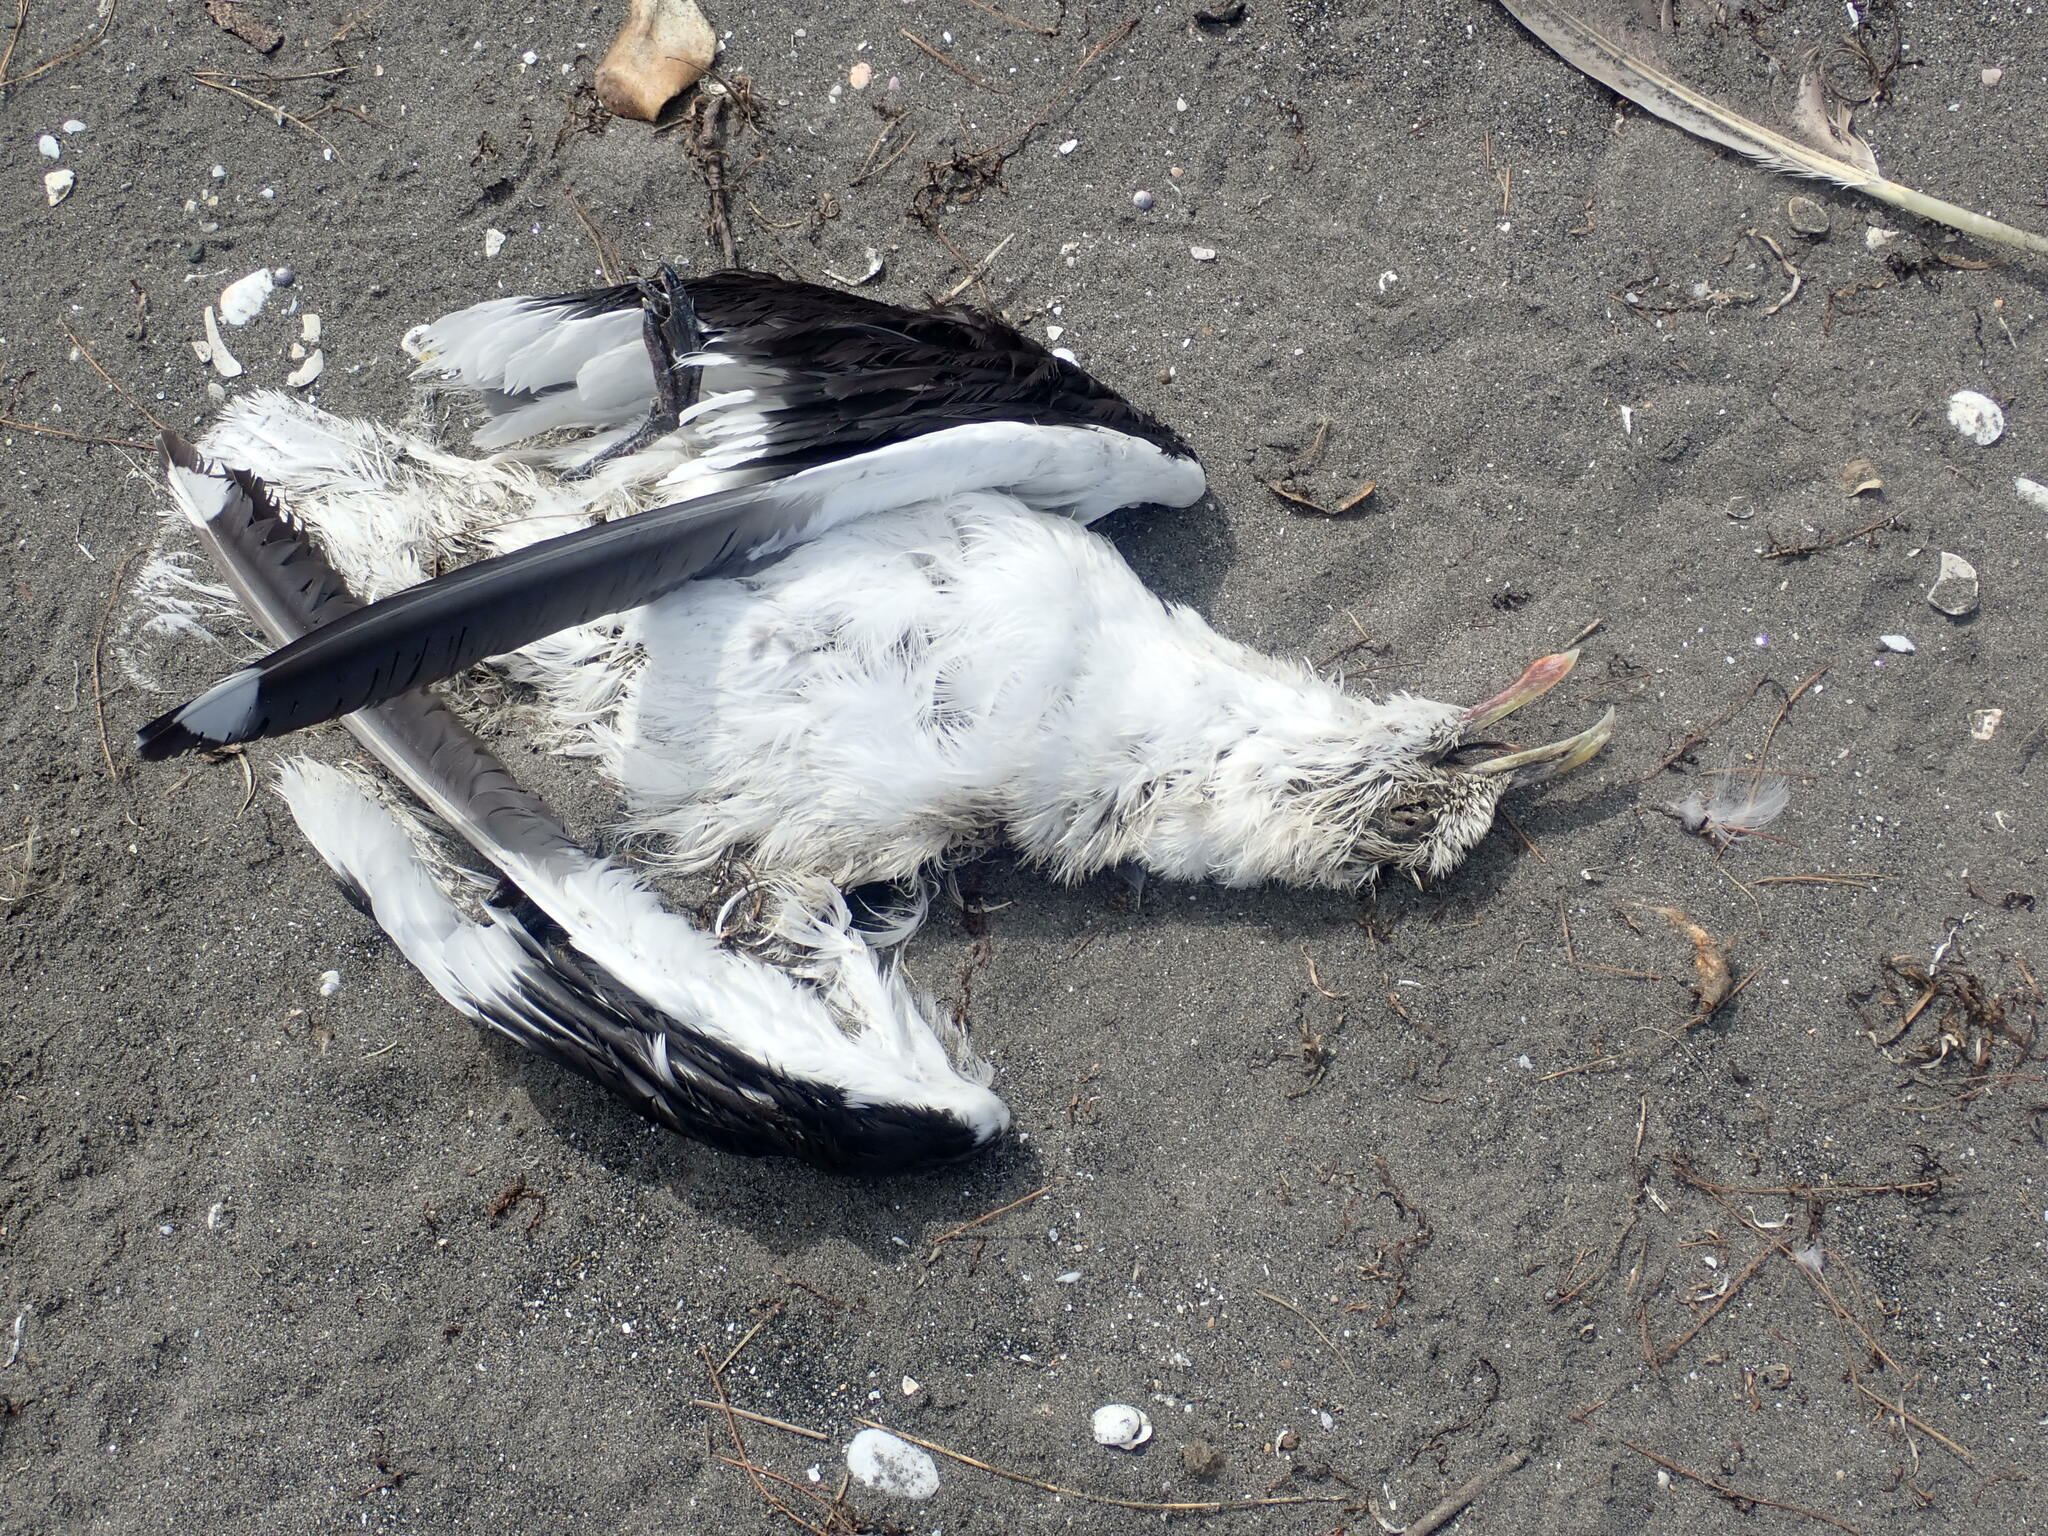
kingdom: Animalia
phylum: Chordata
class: Aves
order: Charadriiformes
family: Laridae
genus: Larus
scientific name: Larus dominicanus
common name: Kelp gull
